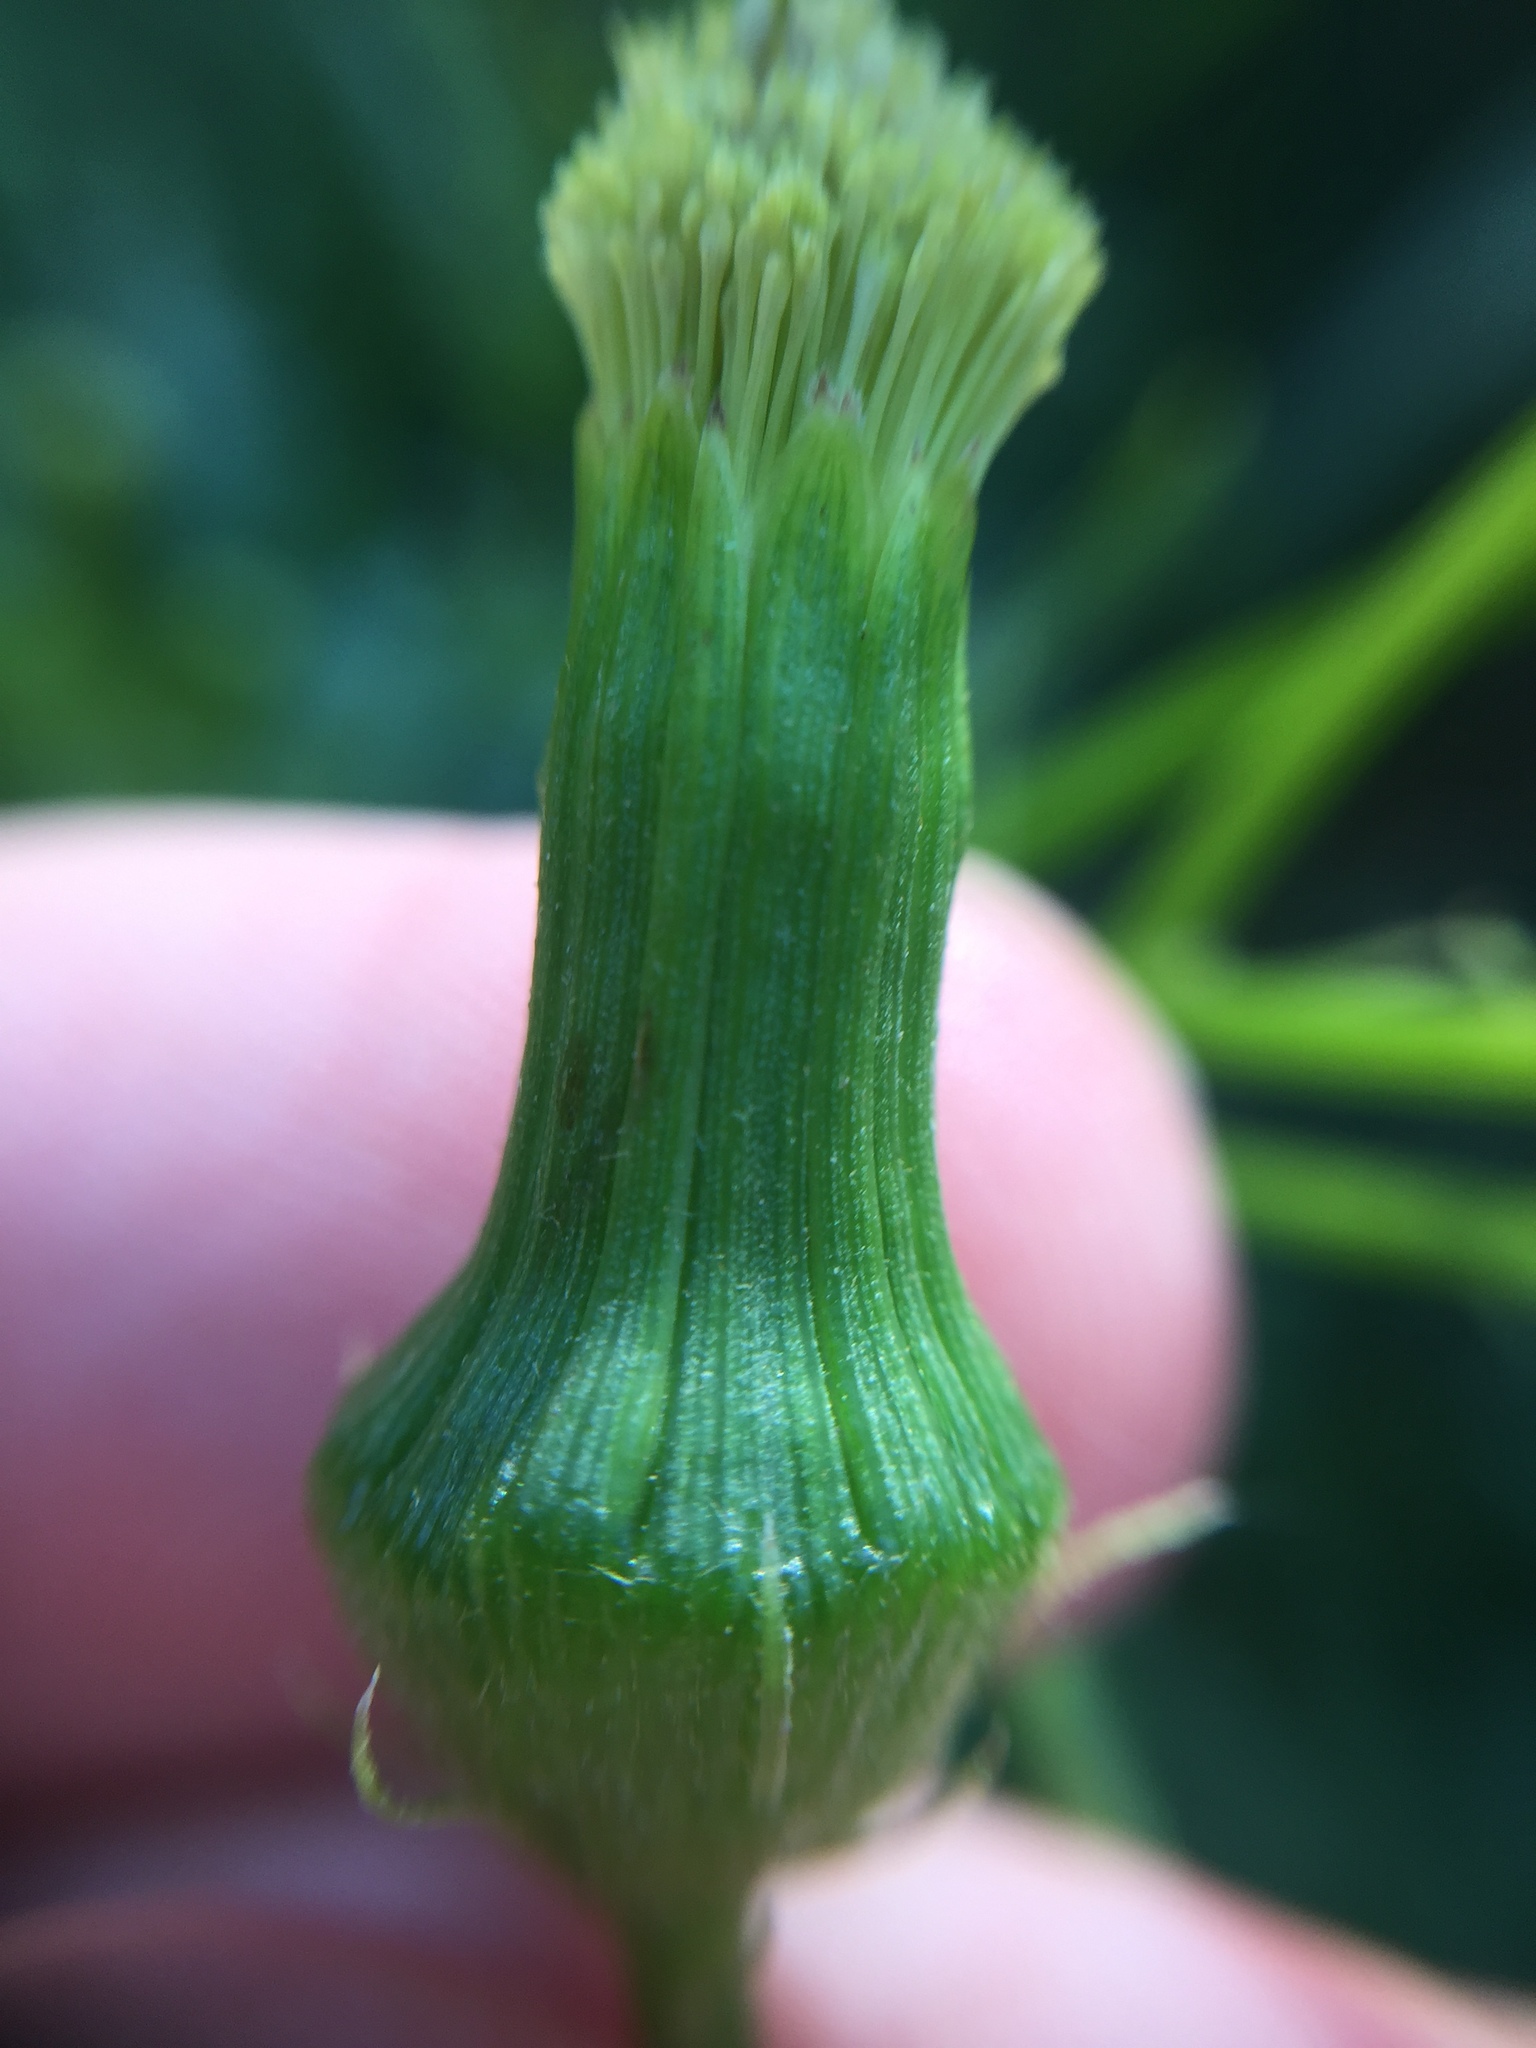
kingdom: Plantae
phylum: Tracheophyta
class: Magnoliopsida
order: Asterales
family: Asteraceae
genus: Erechtites
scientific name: Erechtites hieraciifolius
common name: American burnweed
